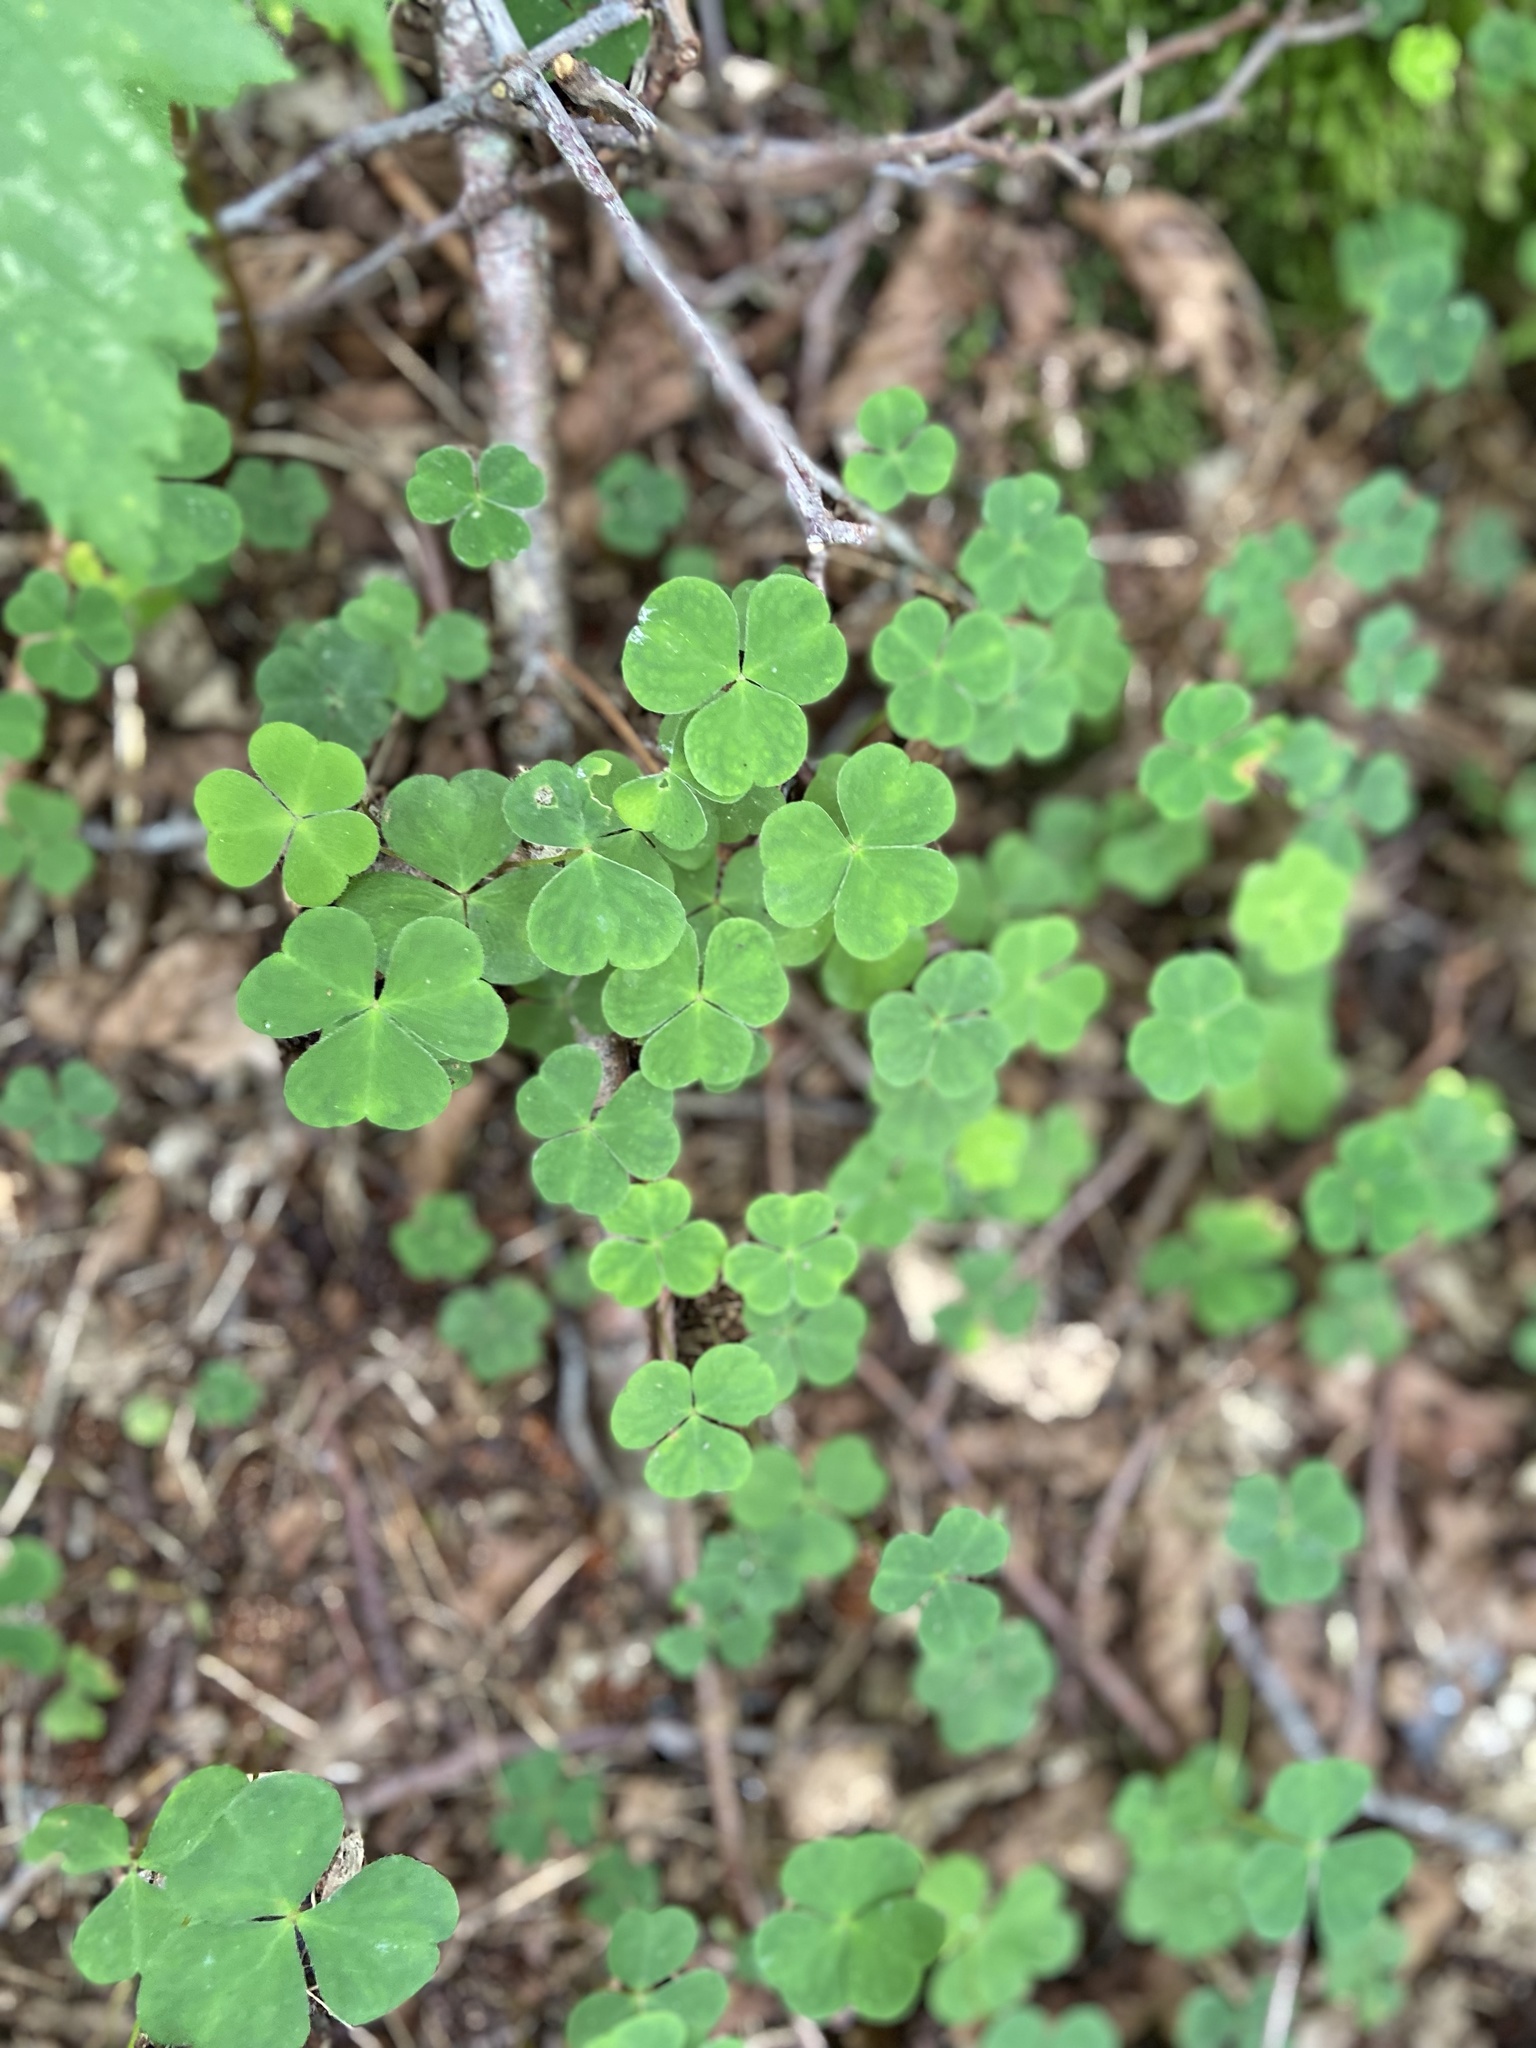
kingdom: Plantae
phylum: Tracheophyta
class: Magnoliopsida
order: Oxalidales
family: Oxalidaceae
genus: Oxalis
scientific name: Oxalis acetosella
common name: Wood-sorrel
